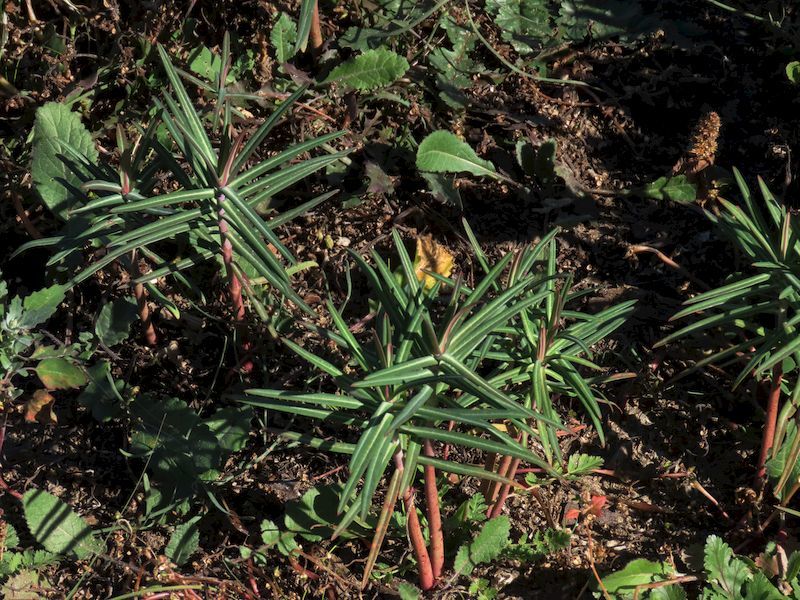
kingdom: Plantae
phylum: Tracheophyta
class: Magnoliopsida
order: Malpighiales
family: Euphorbiaceae
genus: Euphorbia
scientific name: Euphorbia lathyris
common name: Caper spurge
